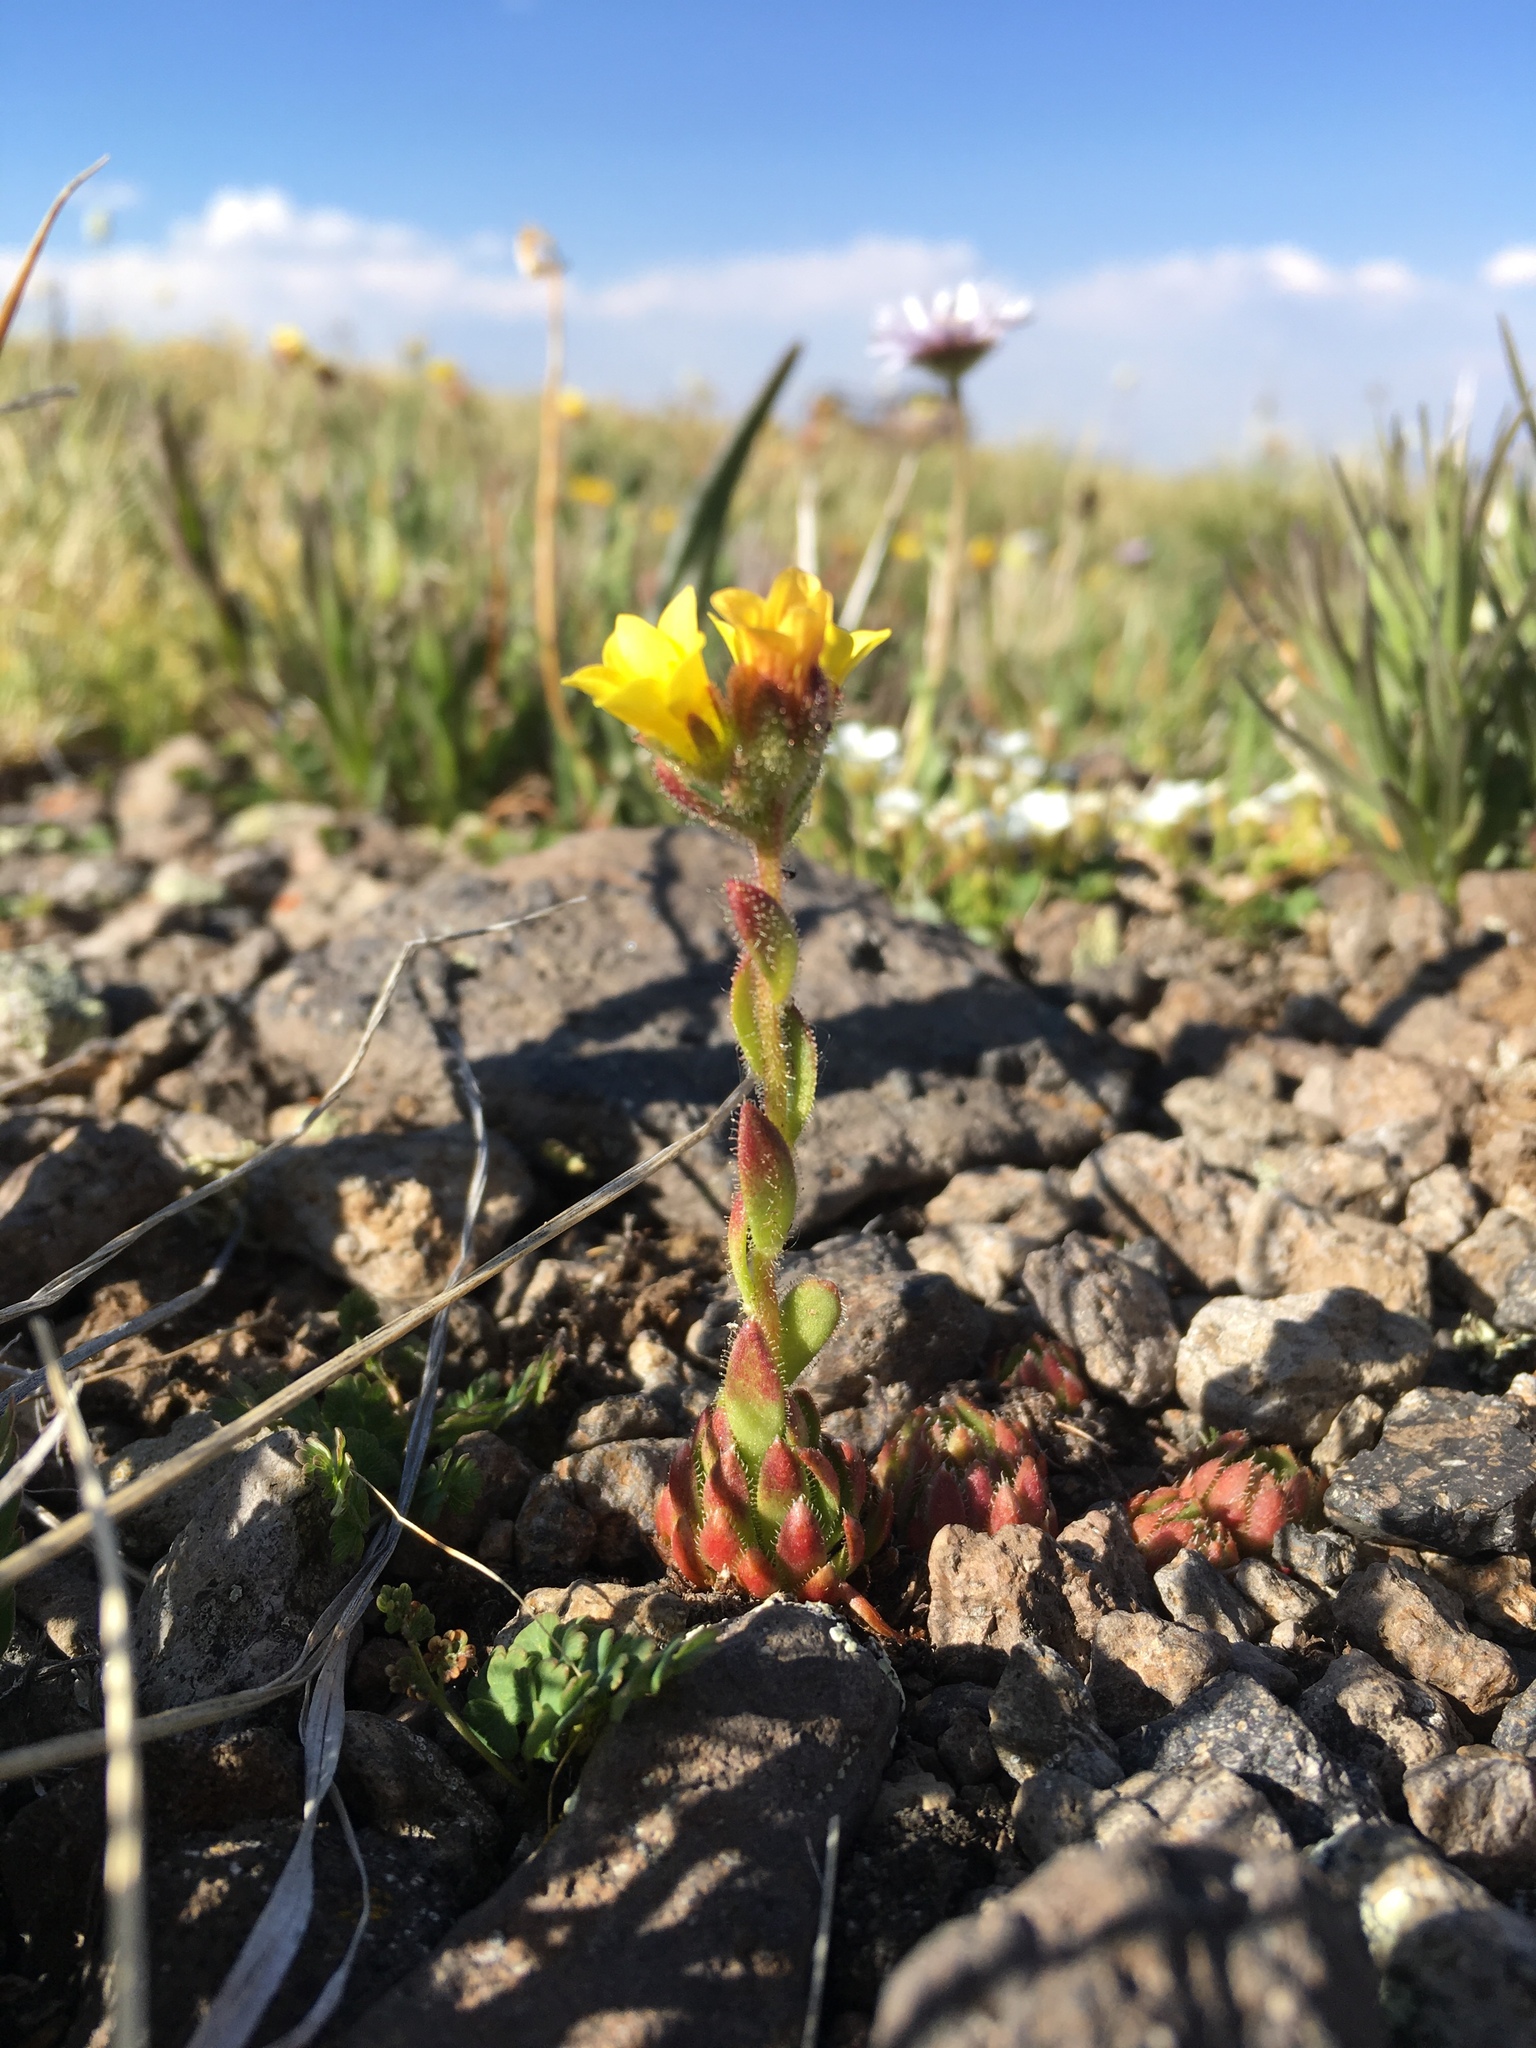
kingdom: Plantae
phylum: Tracheophyta
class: Magnoliopsida
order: Saxifragales
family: Saxifragaceae
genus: Saxifraga
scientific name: Saxifraga flagellaris
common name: Spider saxifrage
